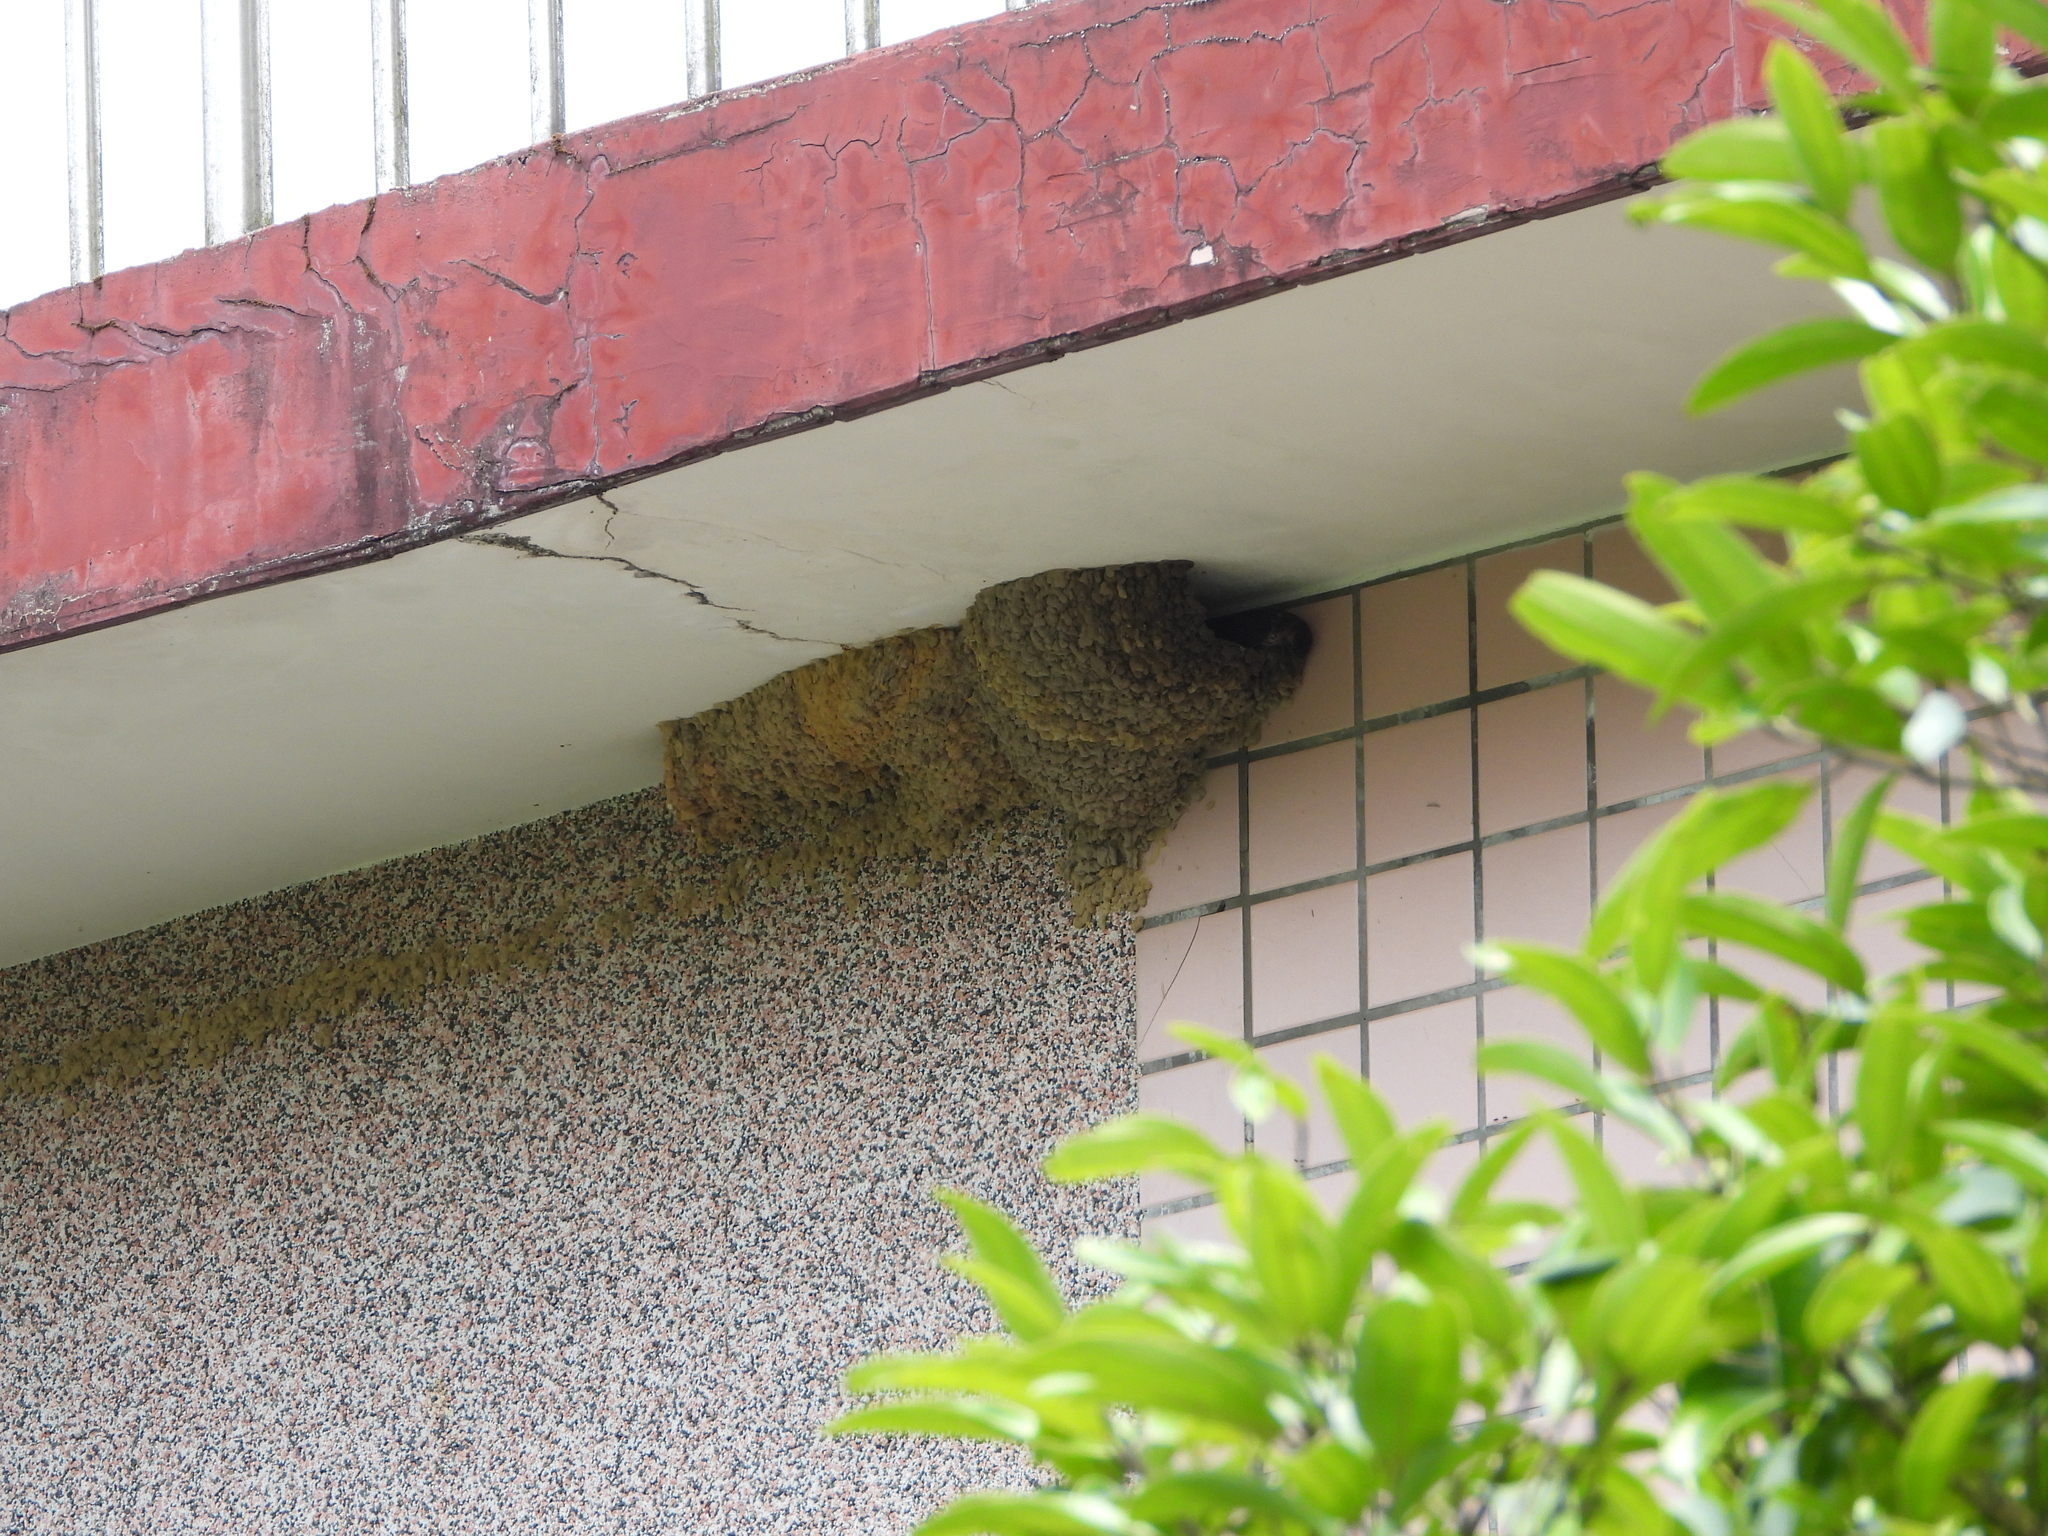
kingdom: Animalia
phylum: Chordata
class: Aves
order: Passeriformes
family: Hirundinidae
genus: Cecropis
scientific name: Cecropis striolata
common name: Striated swallow
